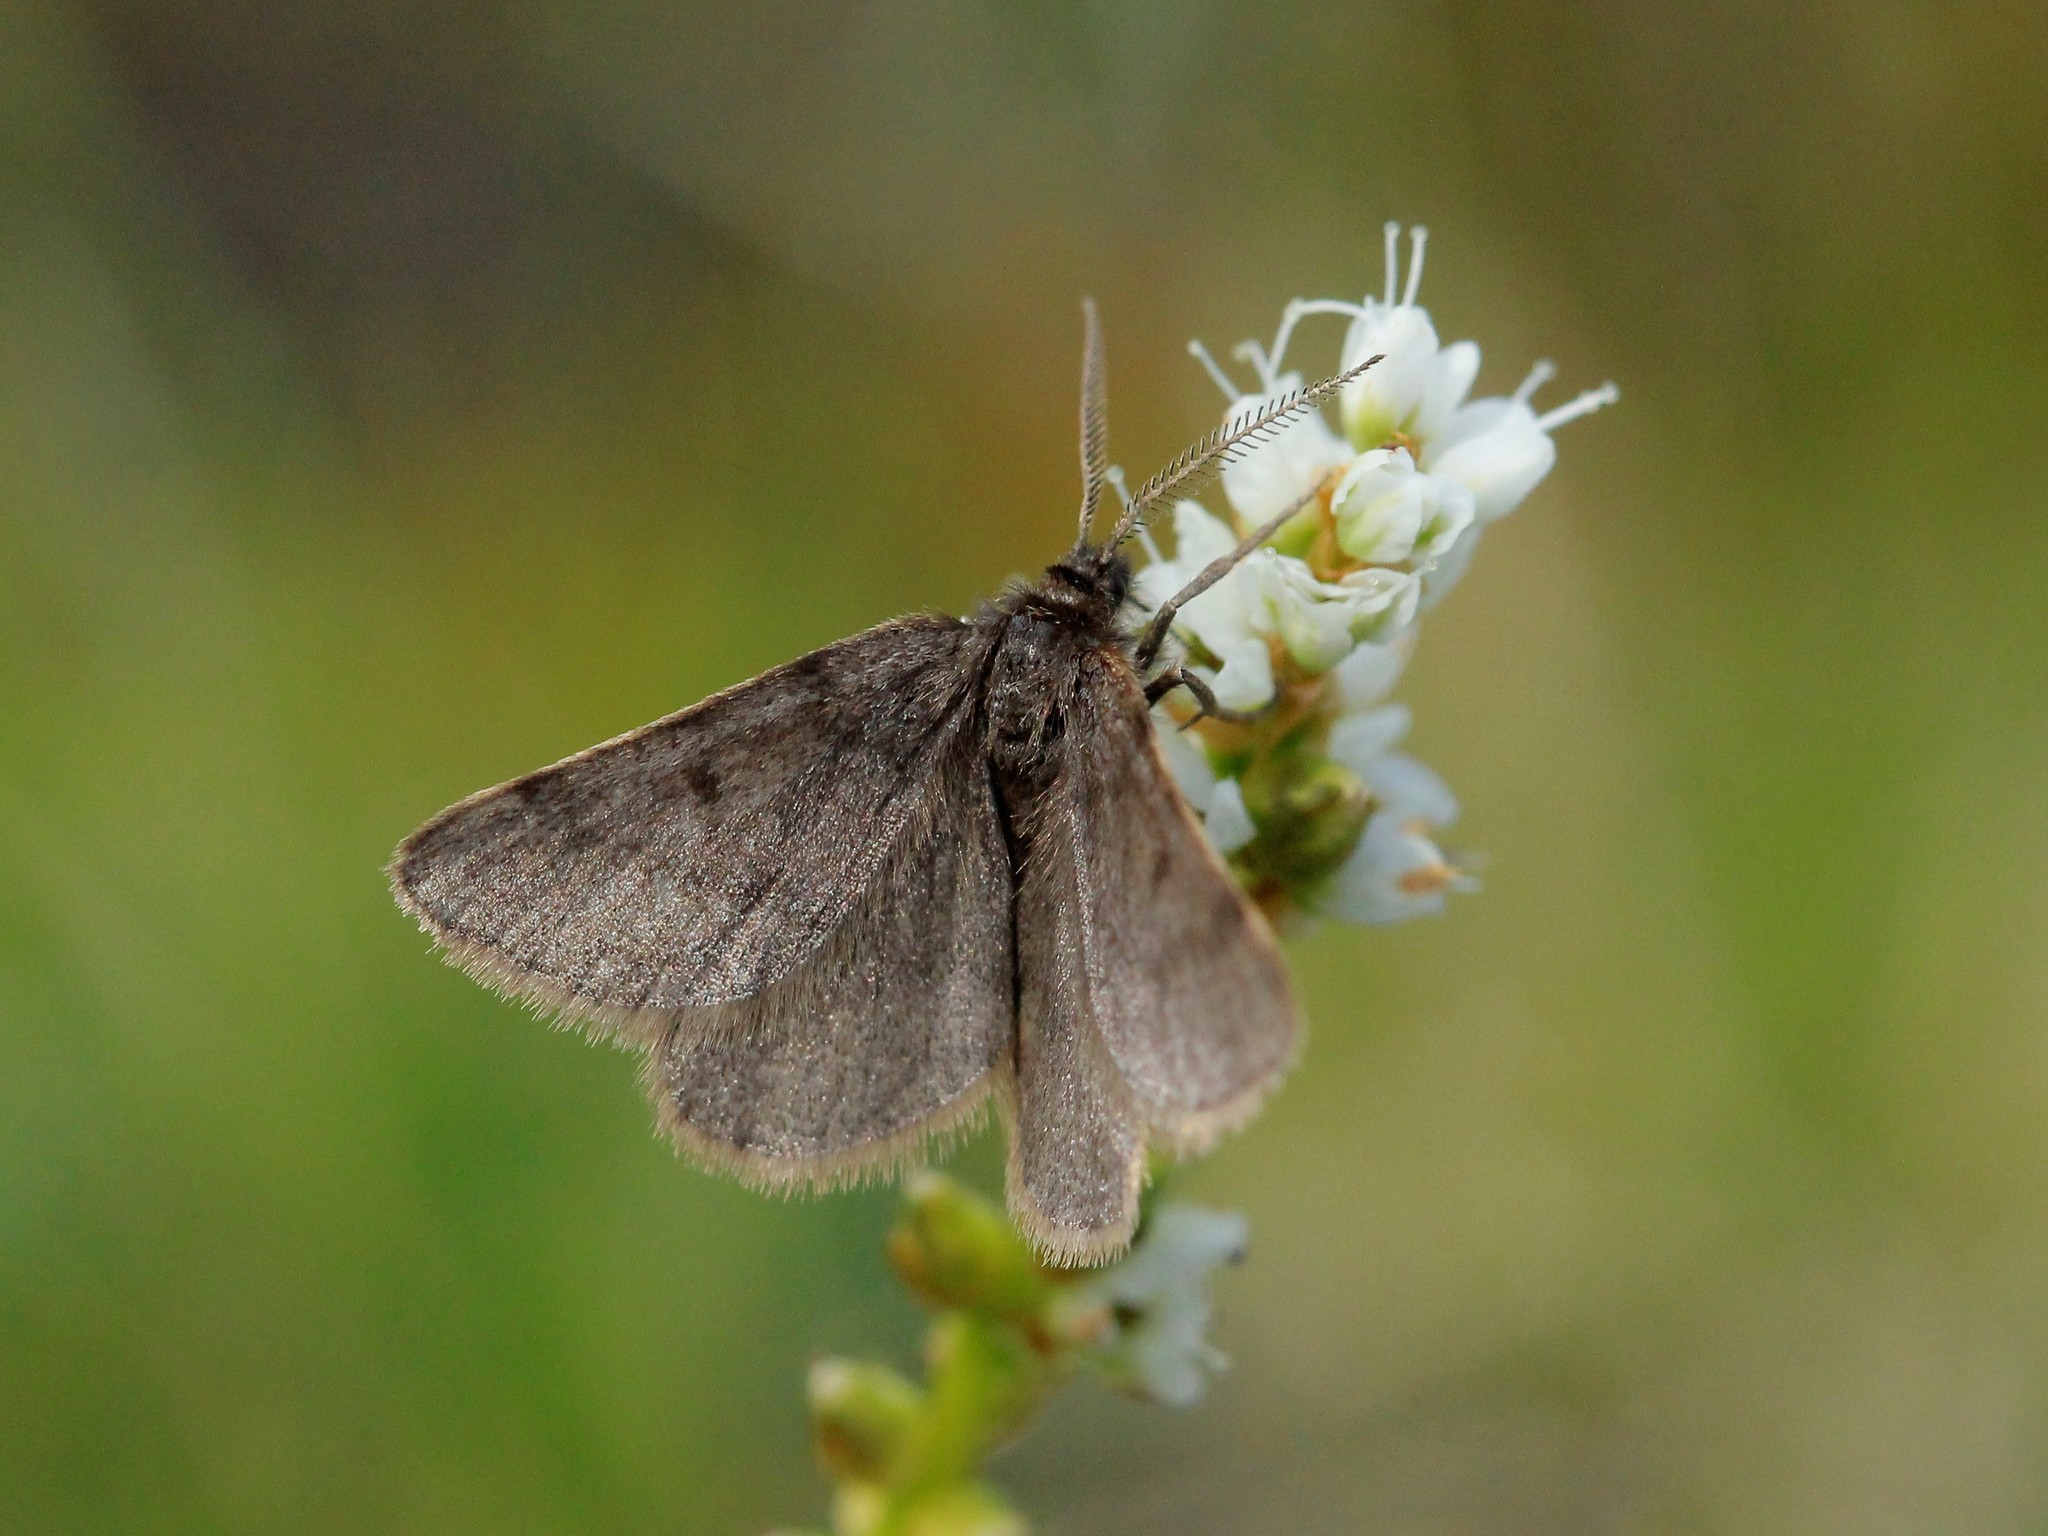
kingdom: Animalia
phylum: Arthropoda
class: Insecta
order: Lepidoptera
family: Geometridae
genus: Macaria
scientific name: Macaria fusca
